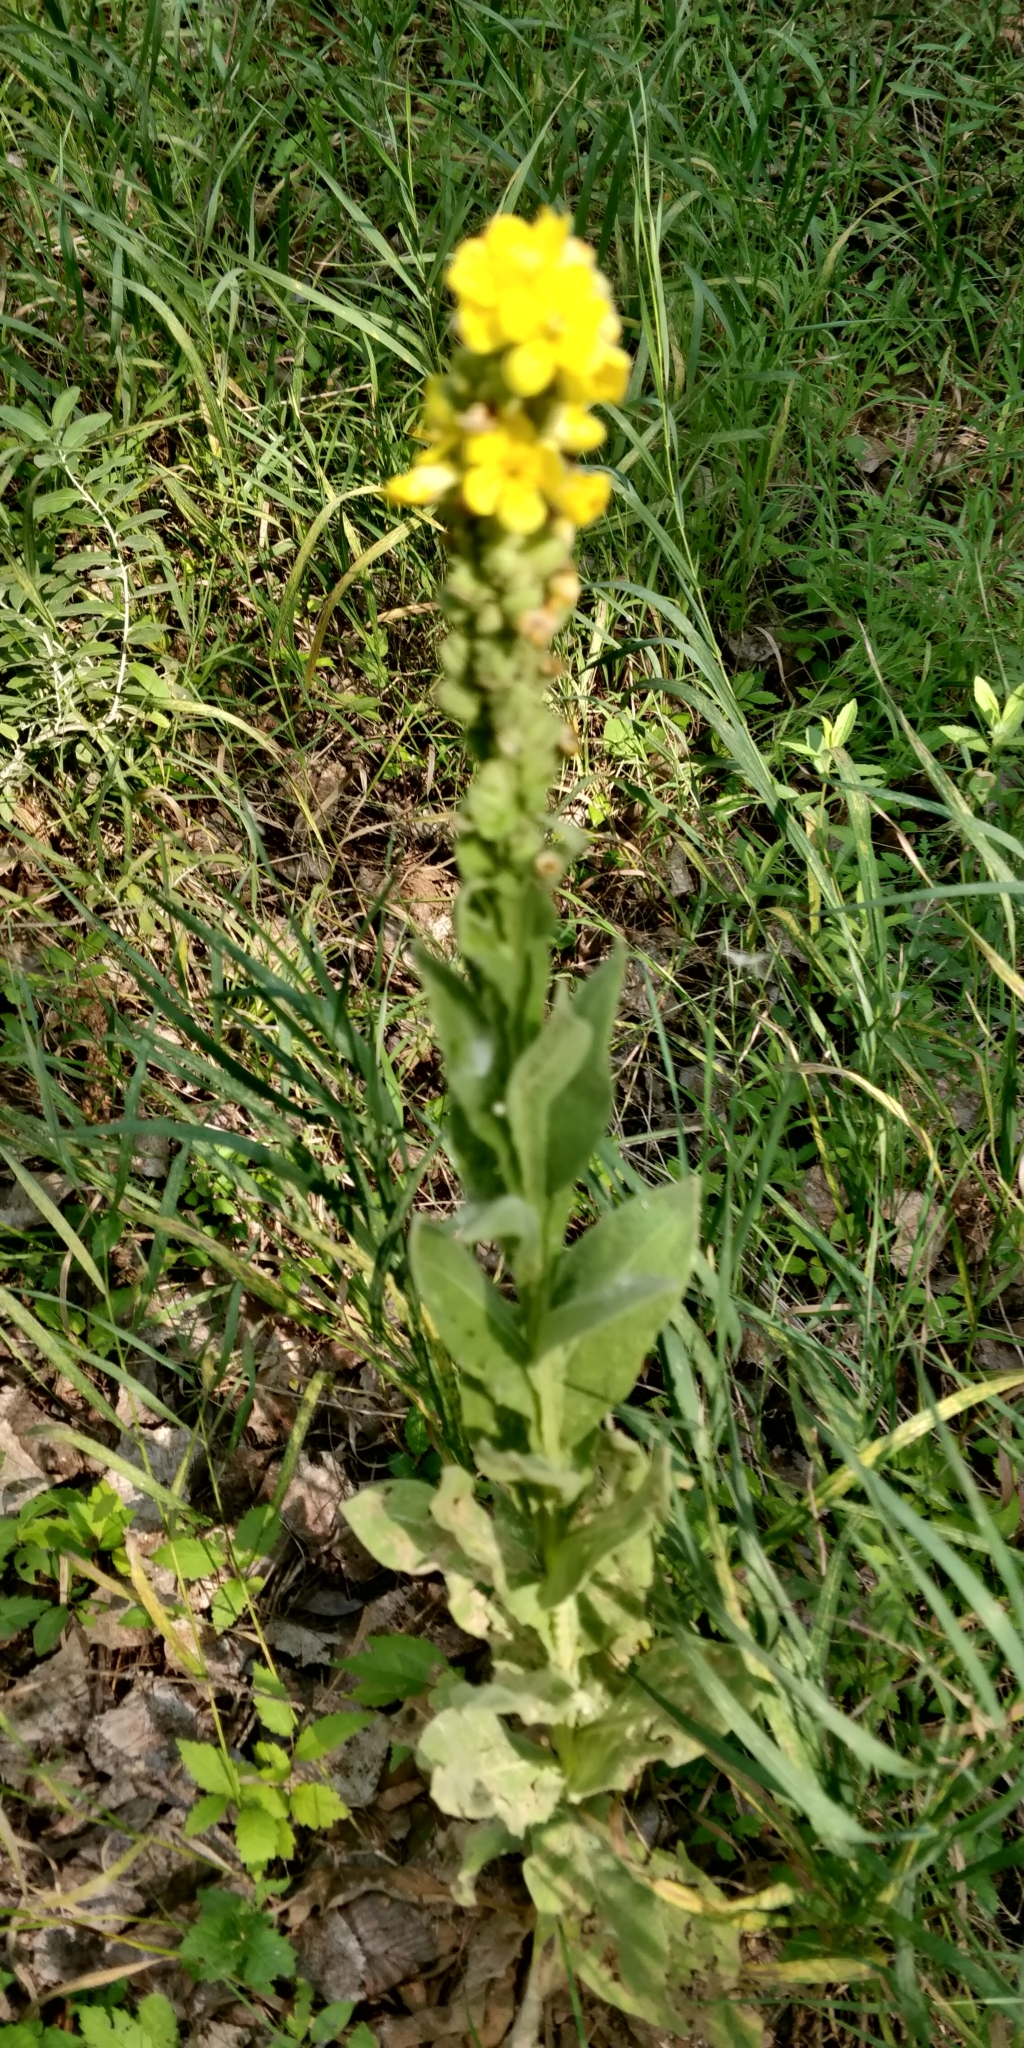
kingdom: Plantae
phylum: Tracheophyta
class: Magnoliopsida
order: Lamiales
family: Scrophulariaceae
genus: Verbascum
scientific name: Verbascum thapsus
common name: Common mullein
